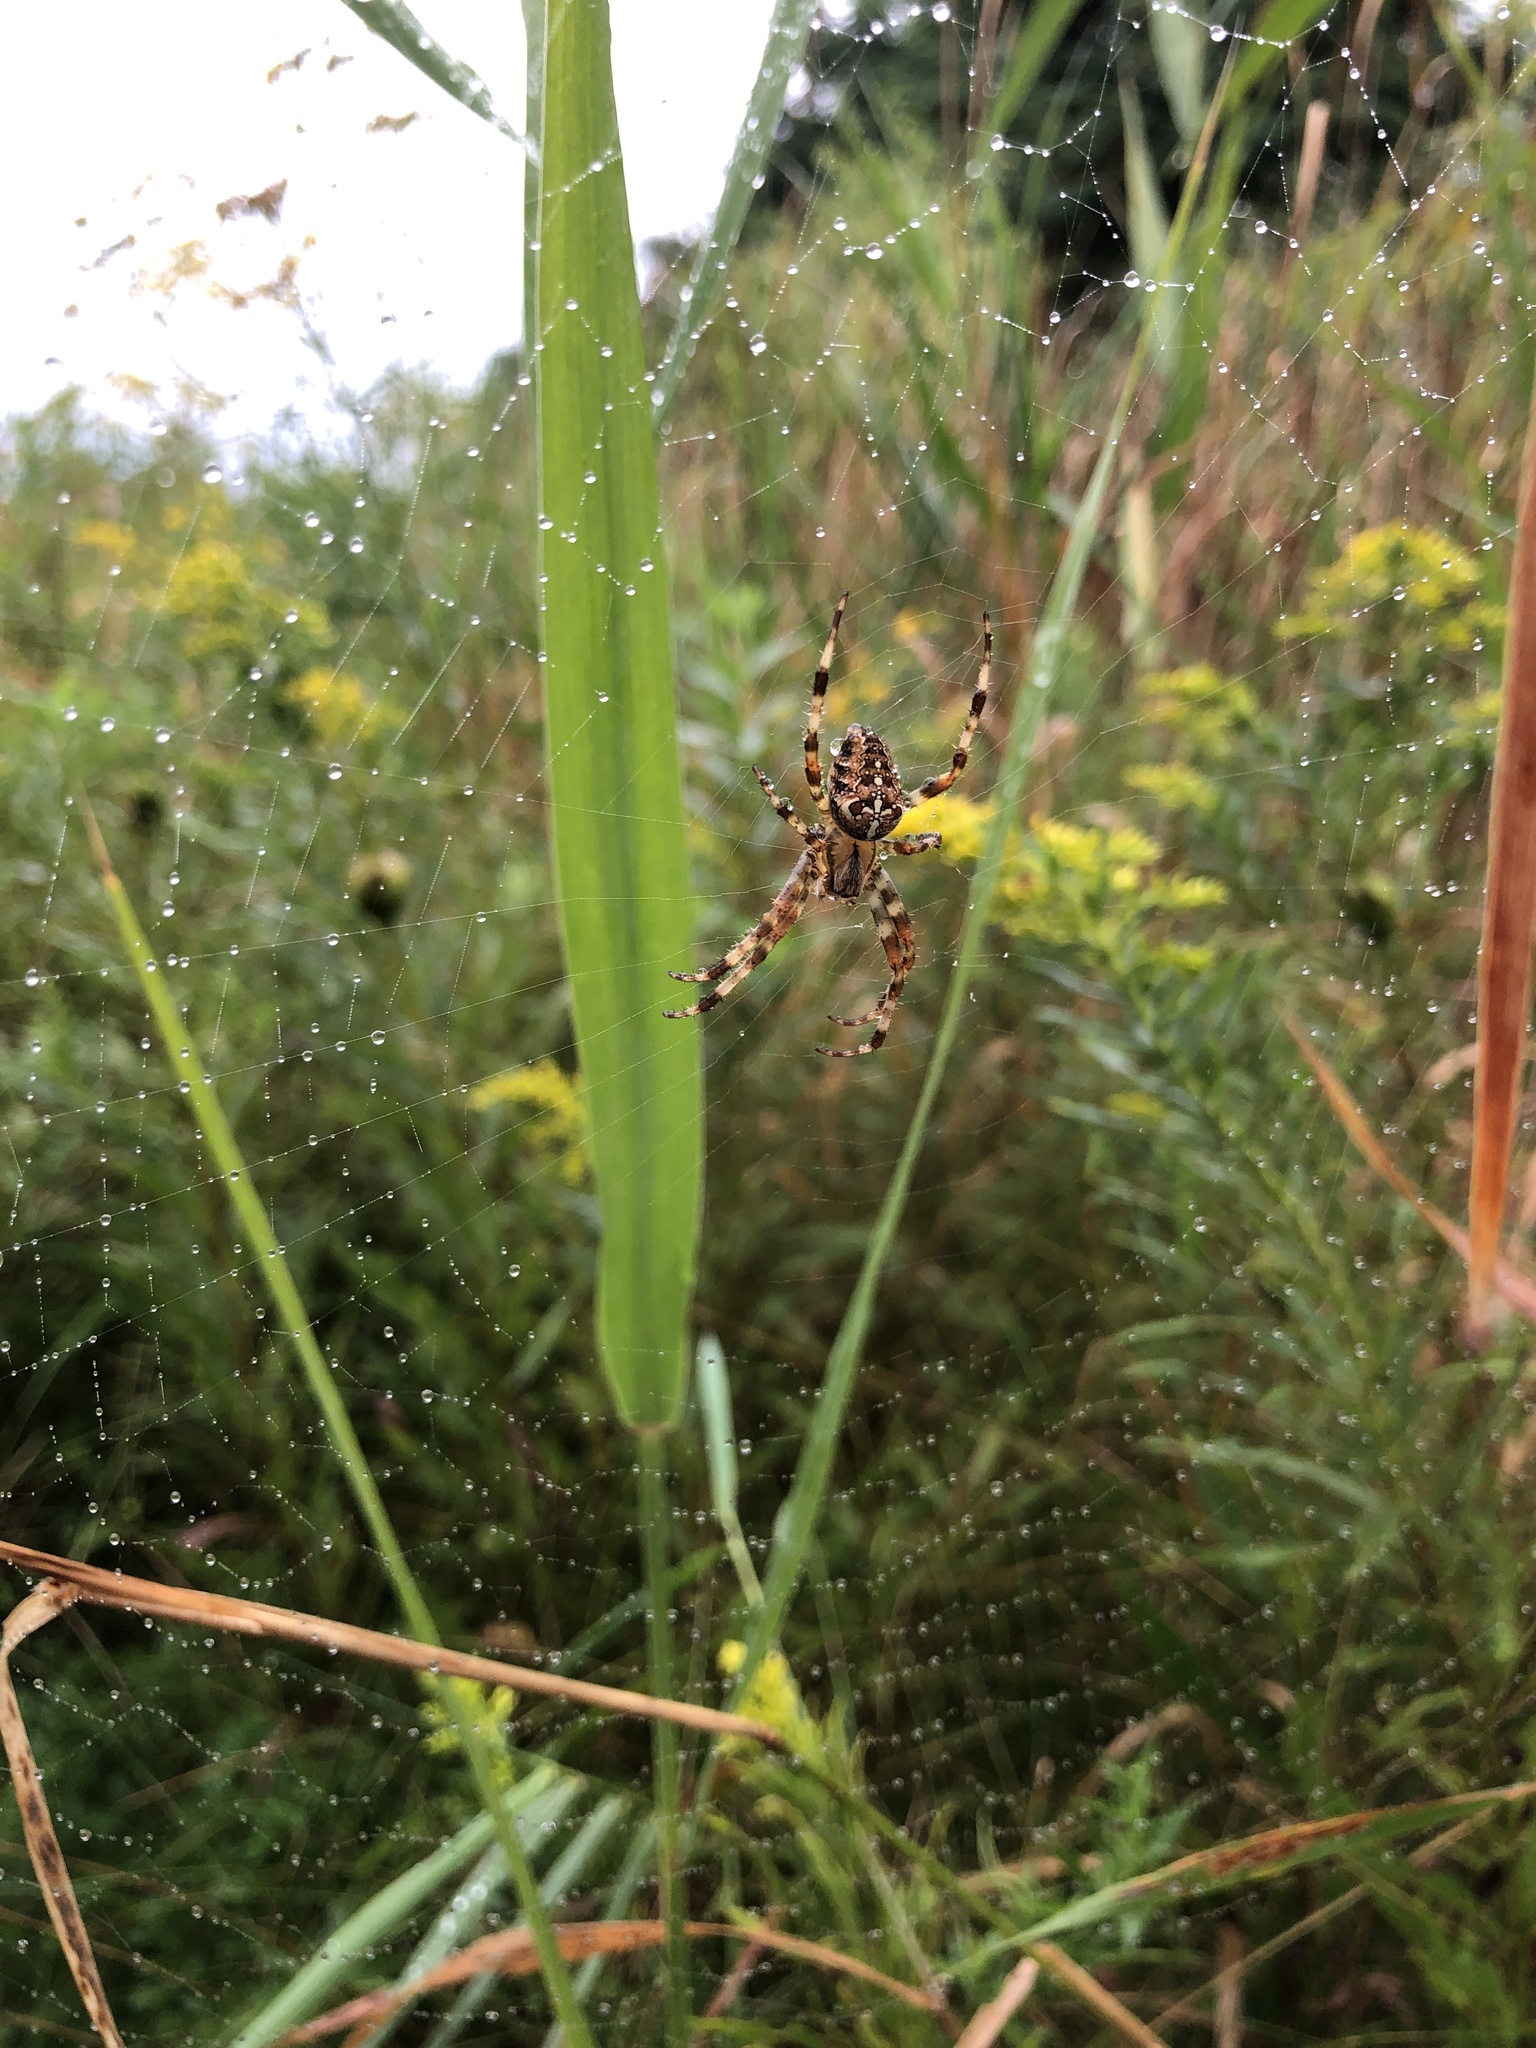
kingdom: Animalia
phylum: Arthropoda
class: Arachnida
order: Araneae
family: Araneidae
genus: Araneus
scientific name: Araneus diadematus
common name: Cross orbweaver
